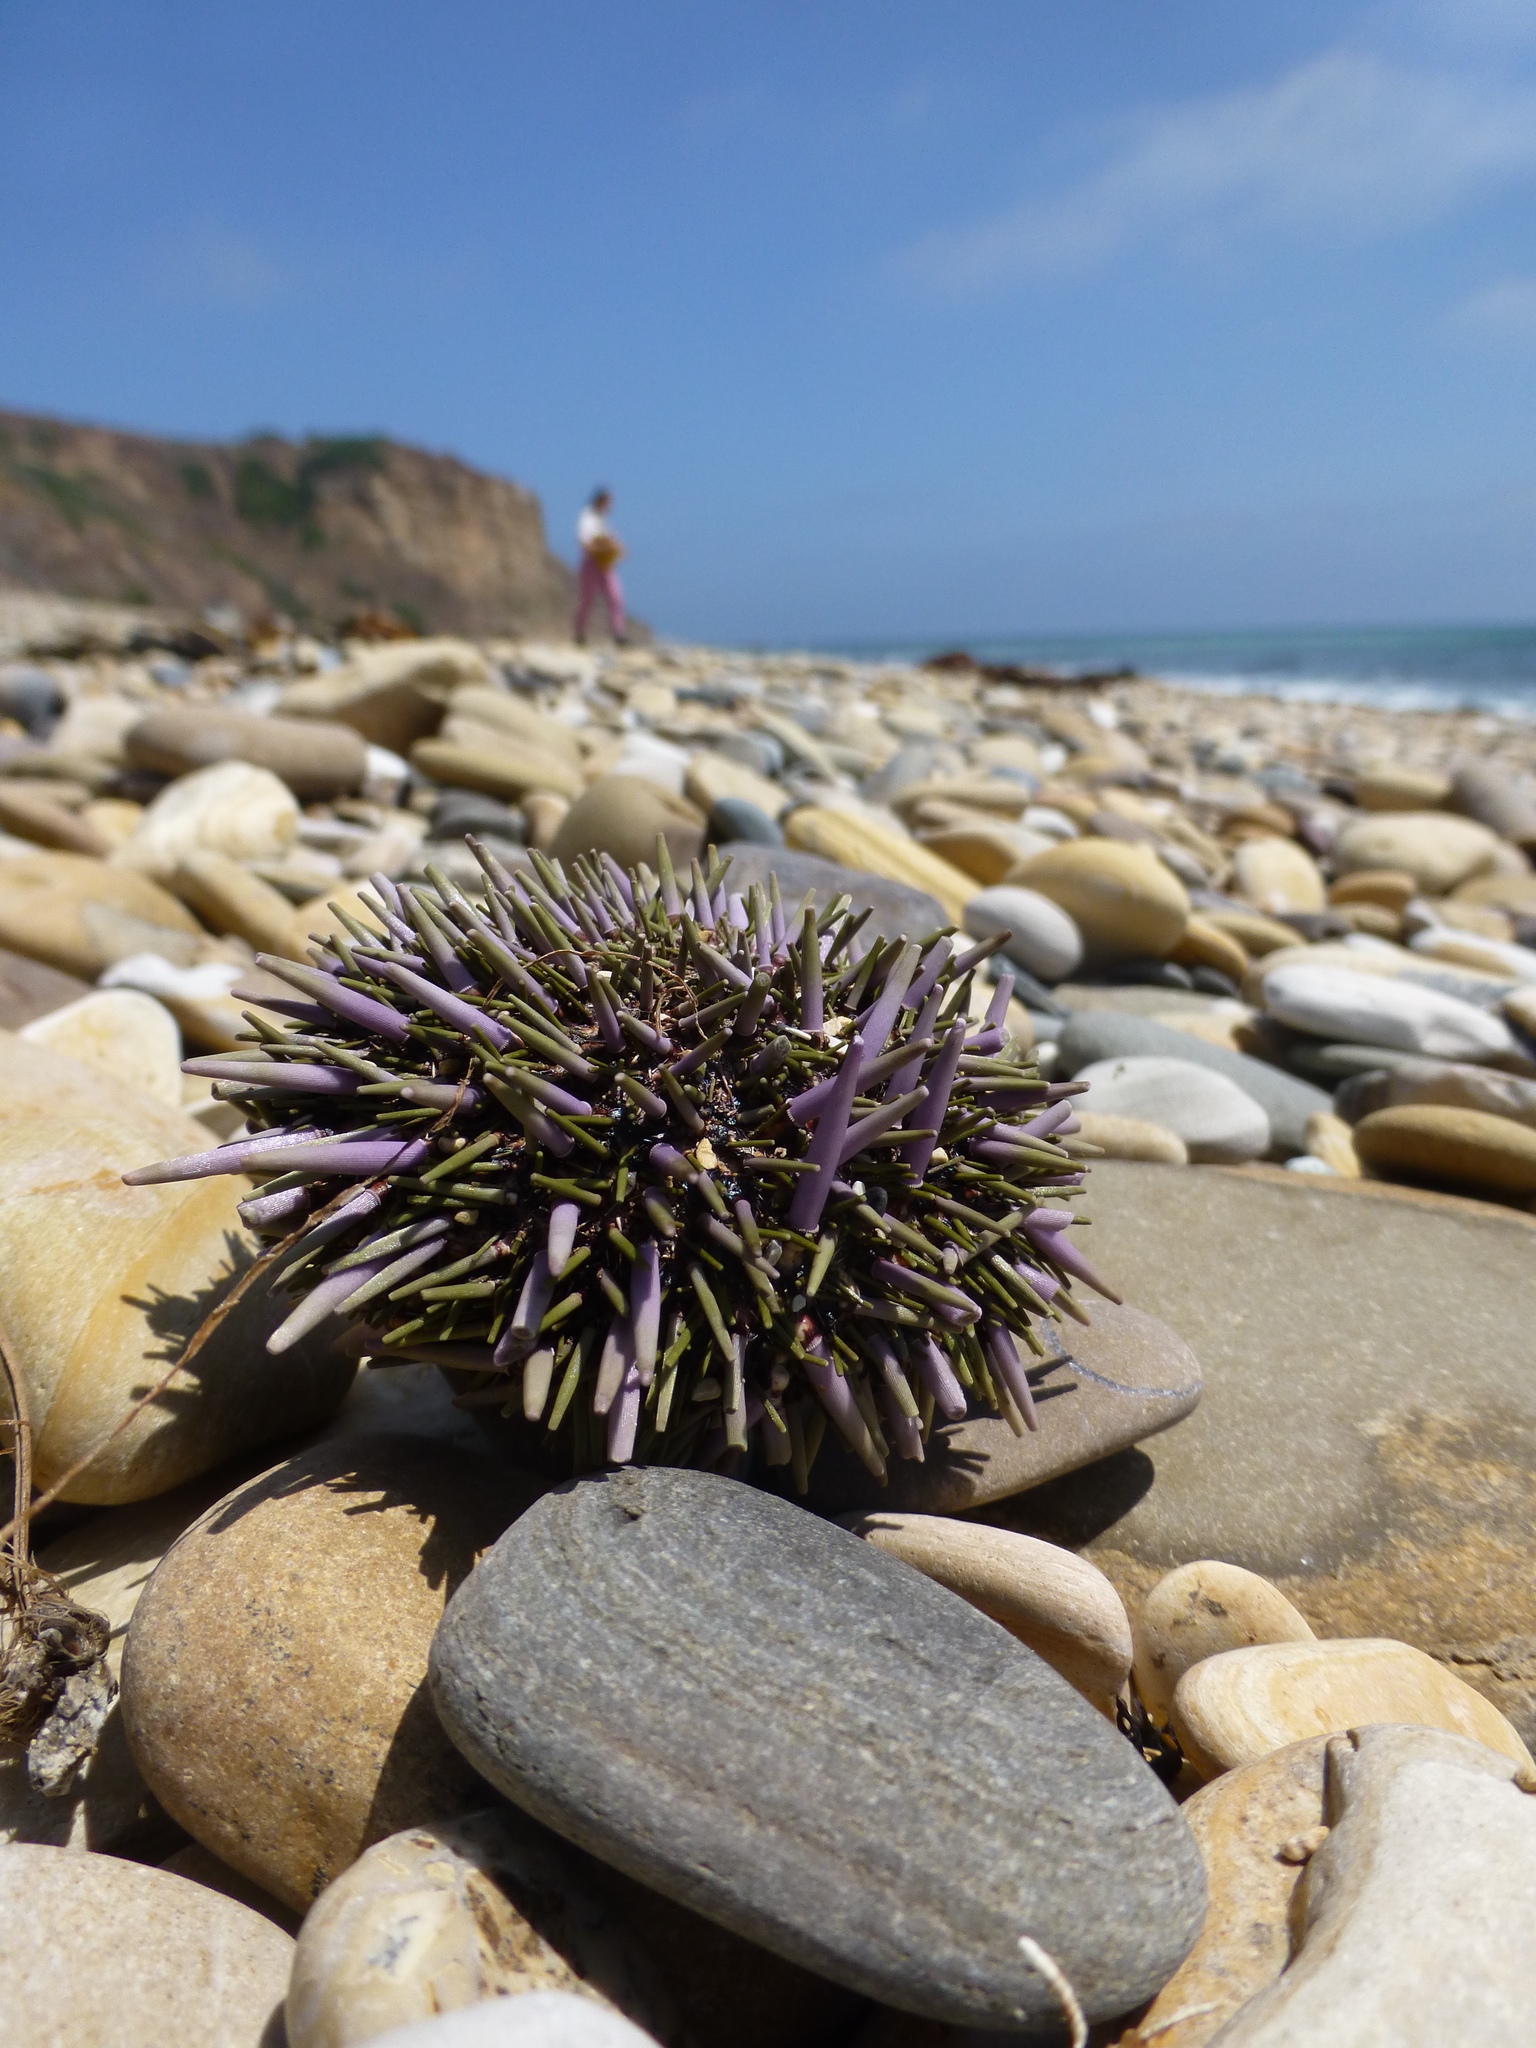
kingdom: Animalia
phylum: Echinodermata
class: Echinoidea
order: Camarodonta
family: Strongylocentrotidae
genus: Strongylocentrotus
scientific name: Strongylocentrotus purpuratus
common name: Purple sea urchin
